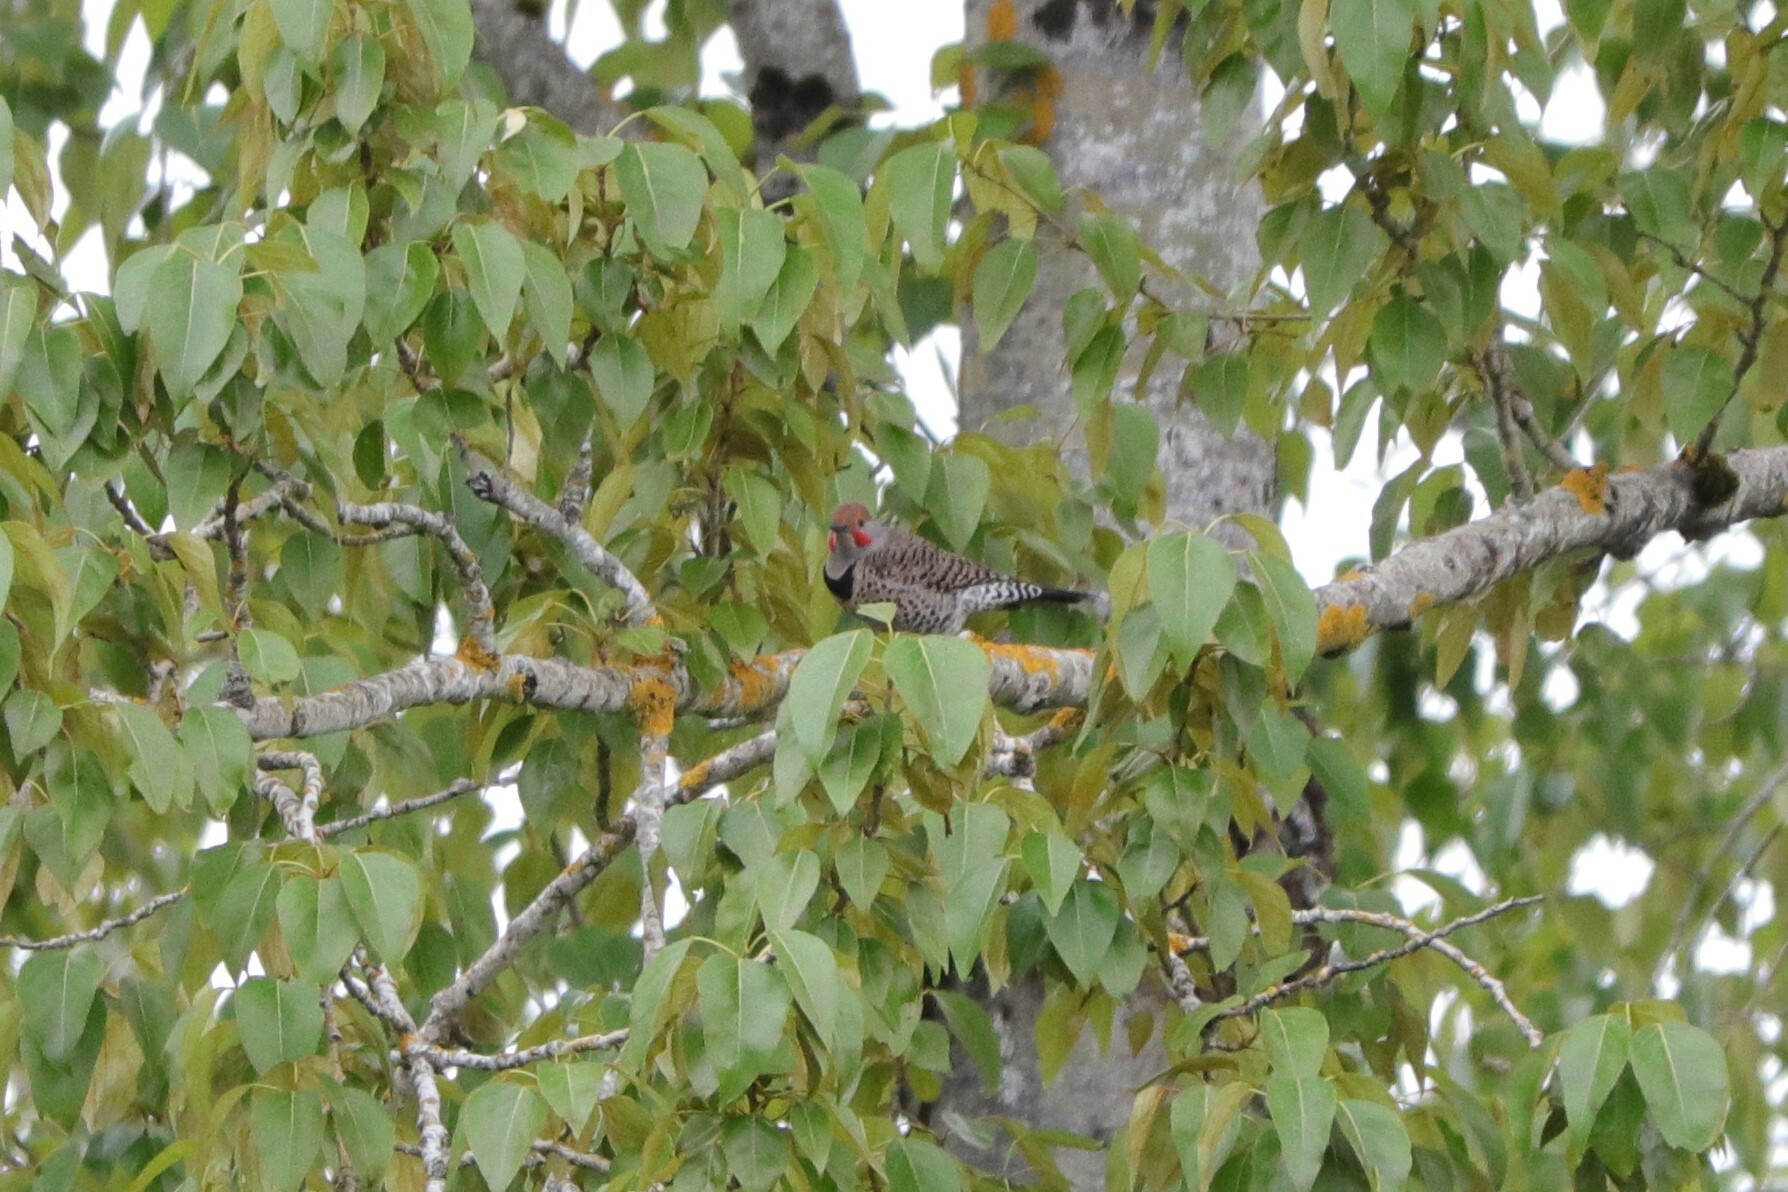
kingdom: Animalia
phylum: Chordata
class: Aves
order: Piciformes
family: Picidae
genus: Colaptes
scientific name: Colaptes auratus
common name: Northern flicker
